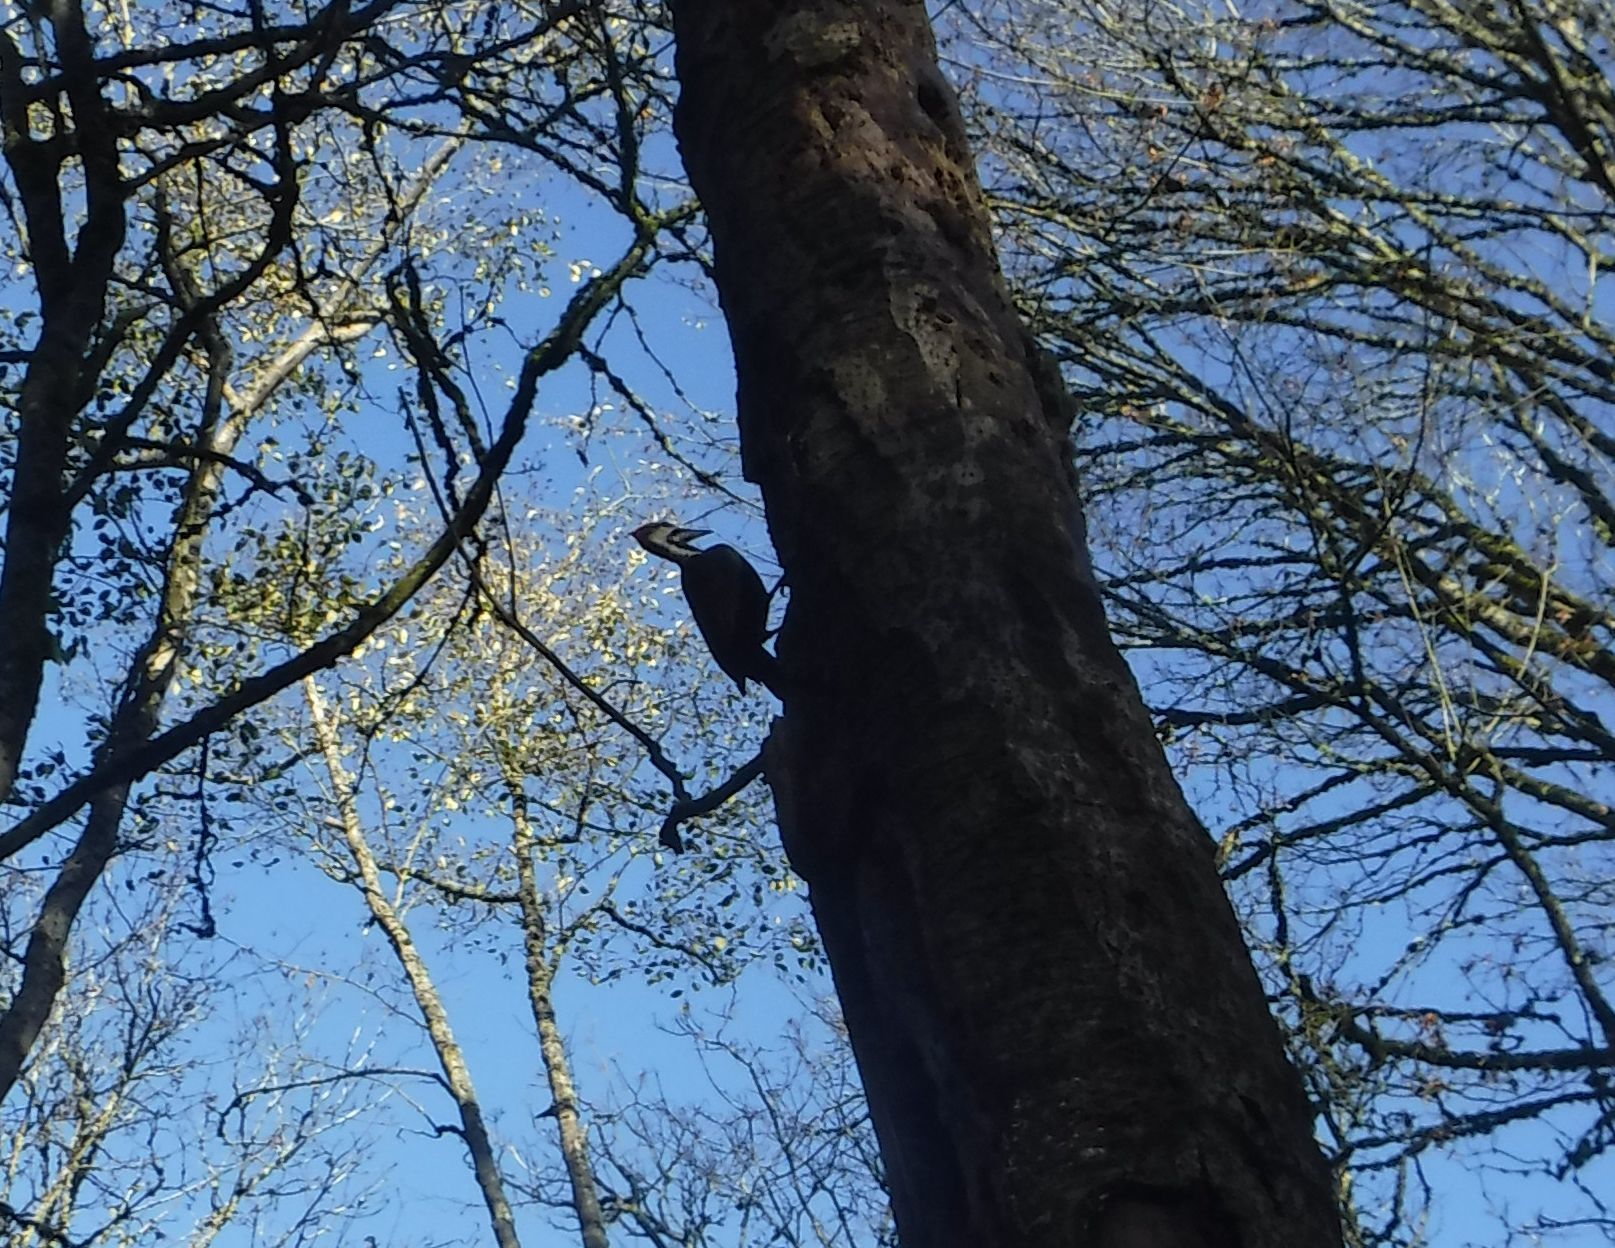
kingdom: Animalia
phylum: Chordata
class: Aves
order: Piciformes
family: Picidae
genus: Dryocopus
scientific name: Dryocopus pileatus
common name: Pileated woodpecker
